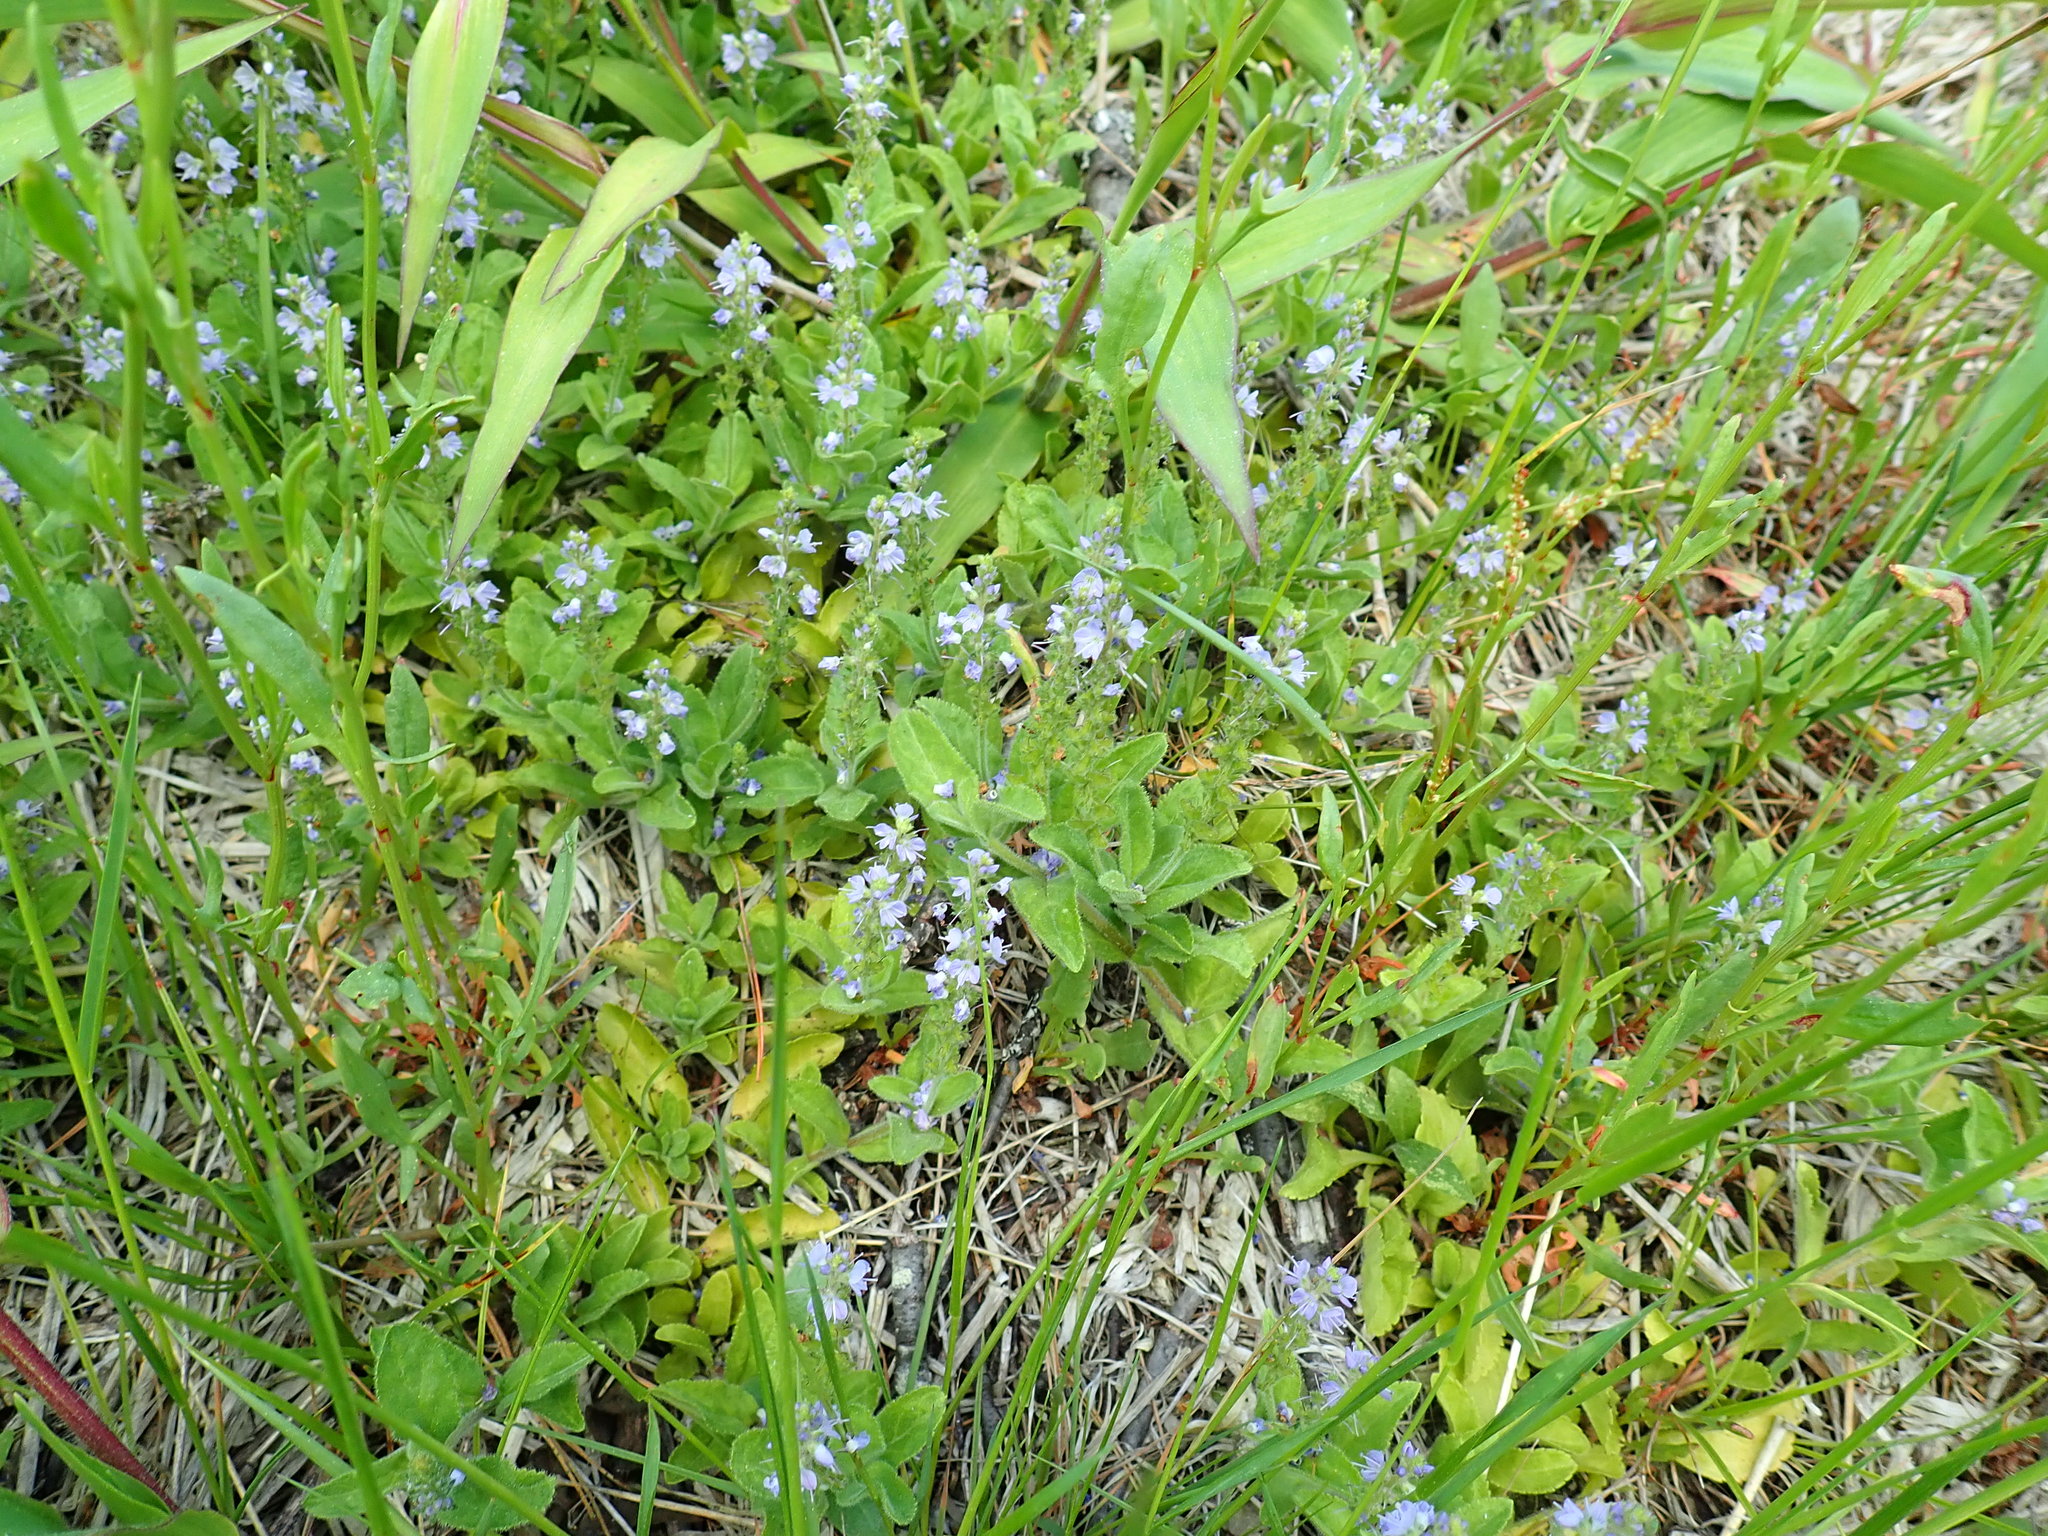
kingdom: Plantae
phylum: Tracheophyta
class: Magnoliopsida
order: Lamiales
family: Plantaginaceae
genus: Veronica
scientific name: Veronica officinalis
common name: Common speedwell
